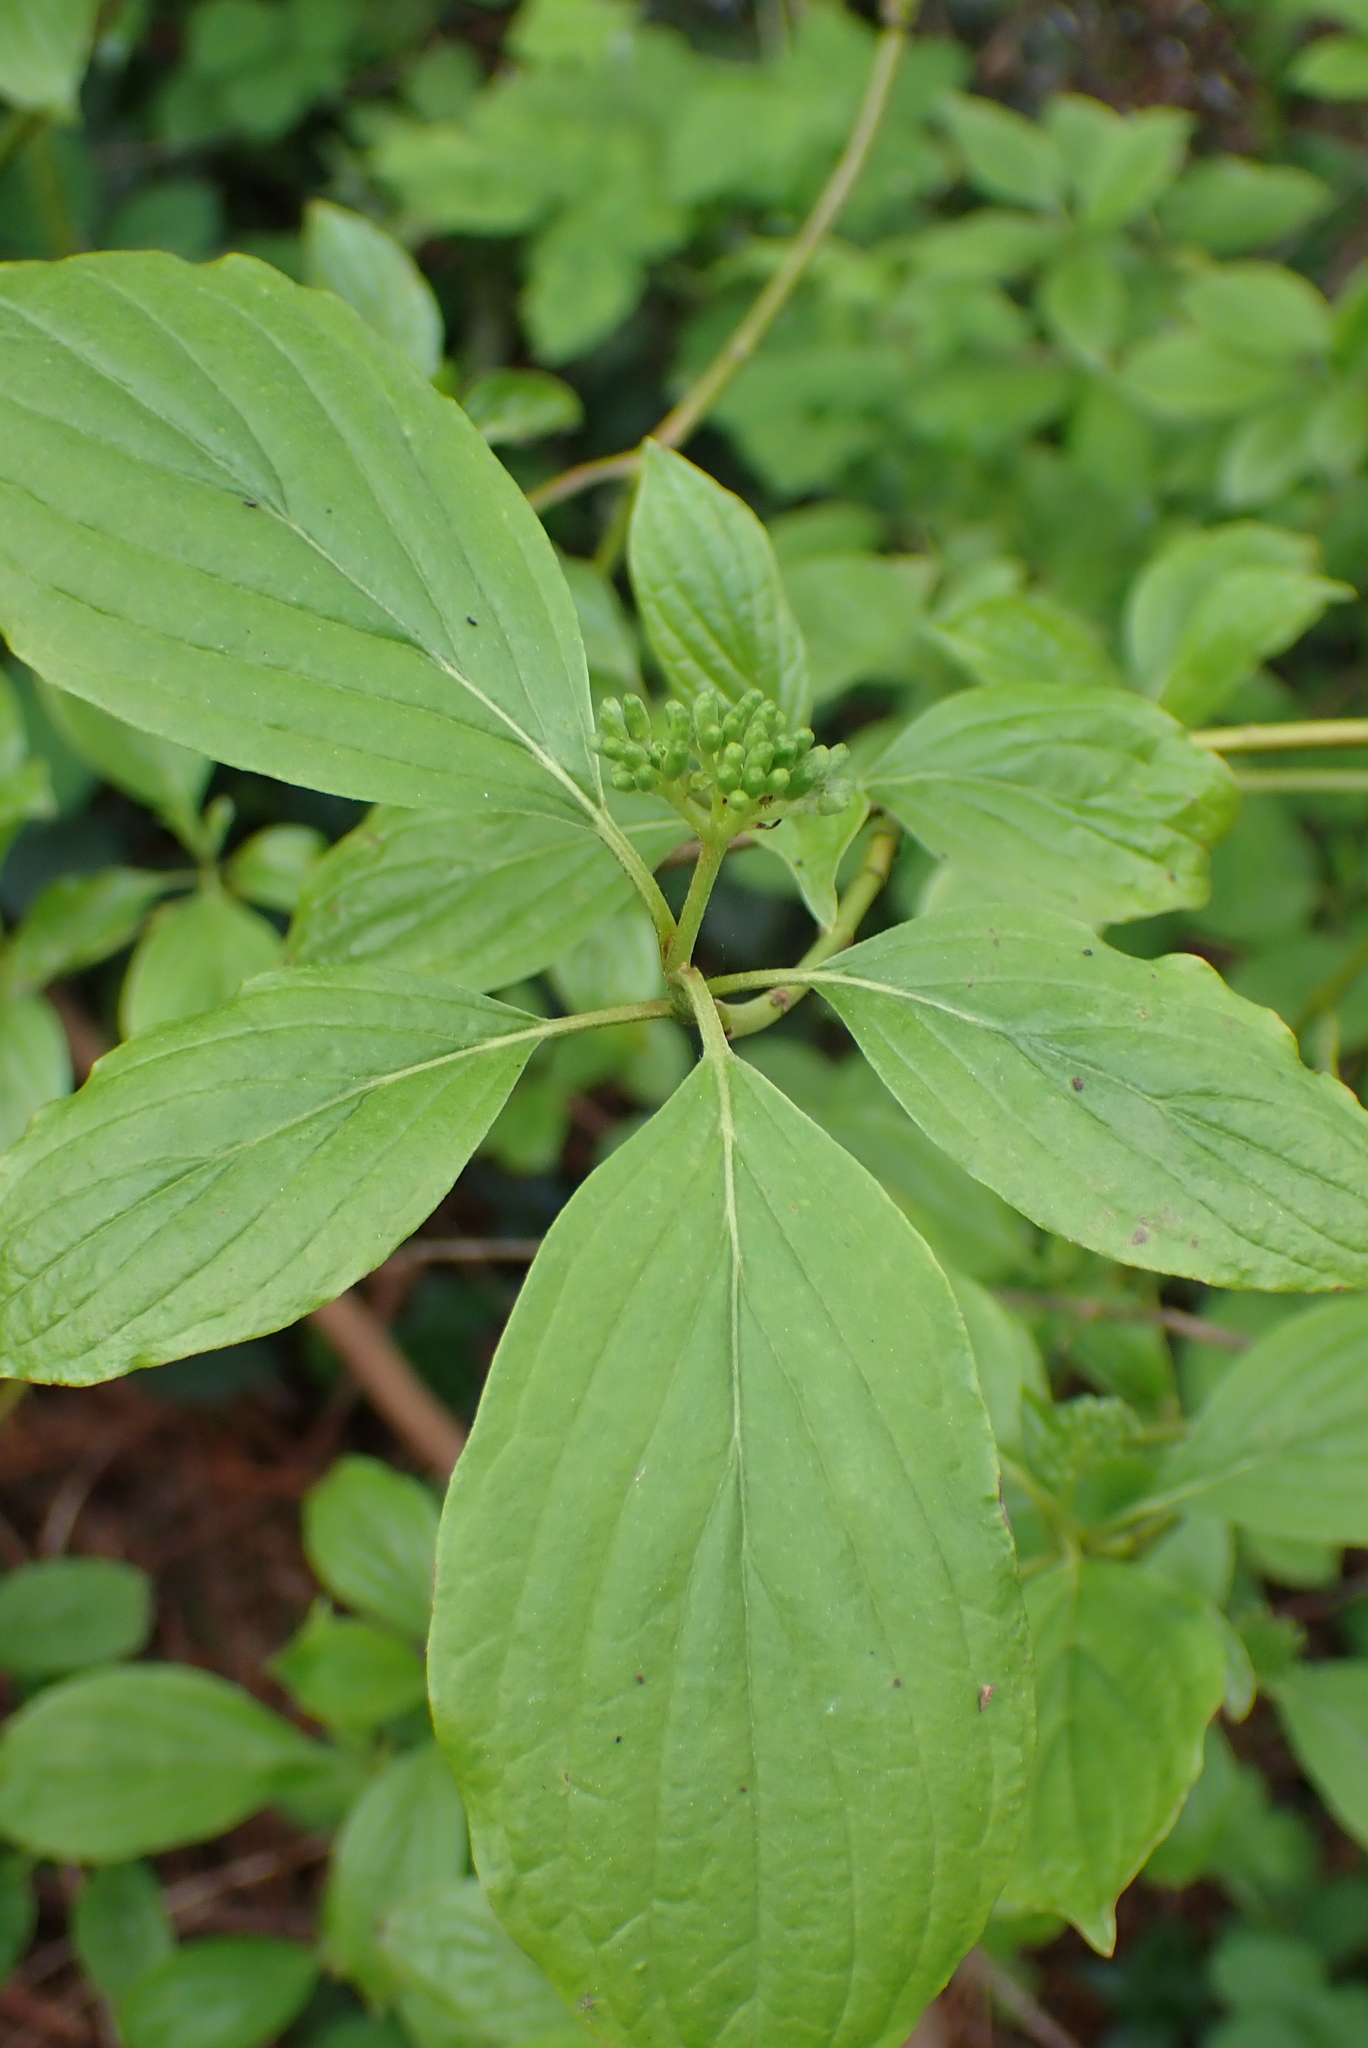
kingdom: Plantae
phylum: Tracheophyta
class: Magnoliopsida
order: Cornales
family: Cornaceae
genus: Cornus
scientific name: Cornus sanguinea
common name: Dogwood
